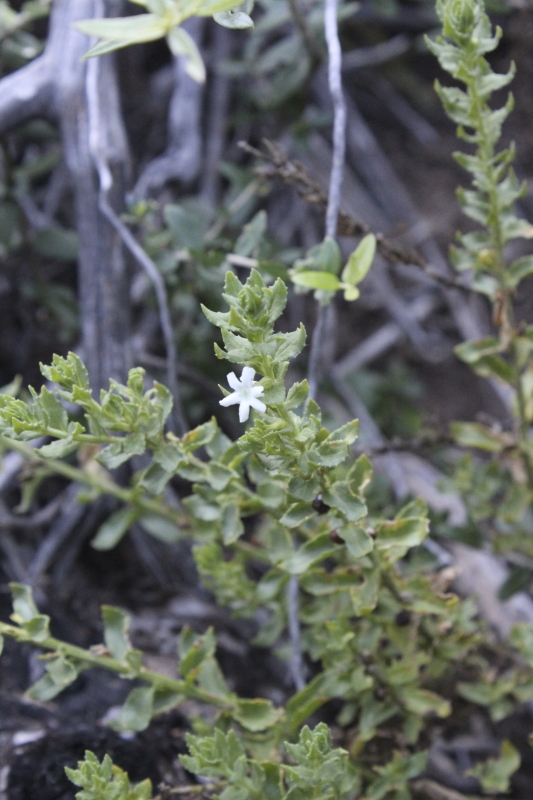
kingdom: Plantae
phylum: Tracheophyta
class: Magnoliopsida
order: Lamiales
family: Scrophulariaceae
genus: Oftia
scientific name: Oftia africana
